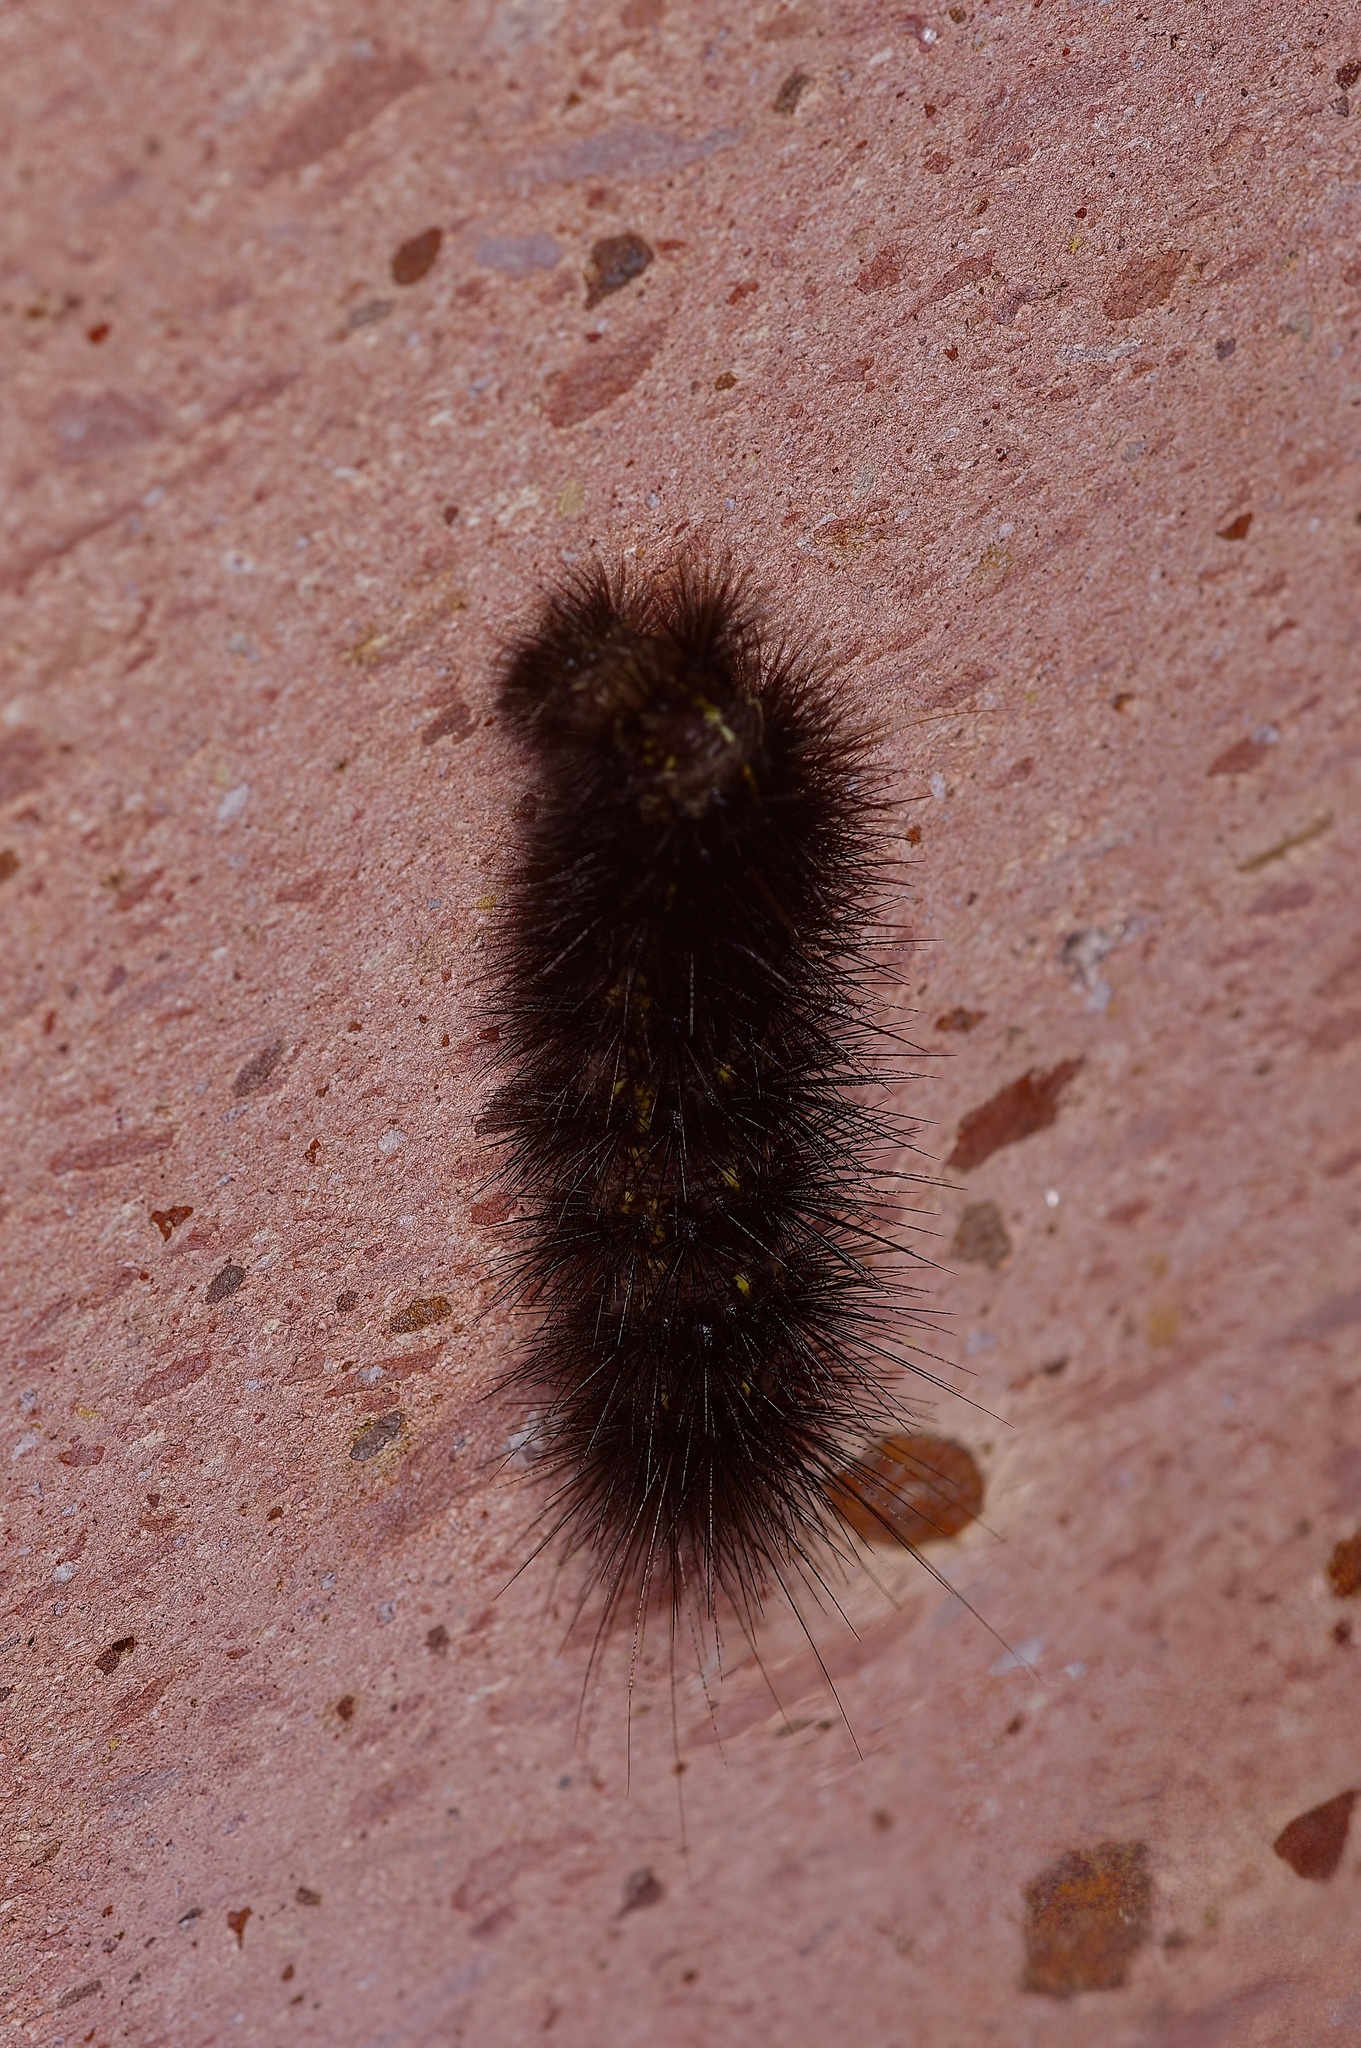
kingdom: Animalia
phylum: Arthropoda
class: Insecta
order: Lepidoptera
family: Erebidae
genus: Spilosoma
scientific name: Spilosoma dubia
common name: Dubious tiger moth
